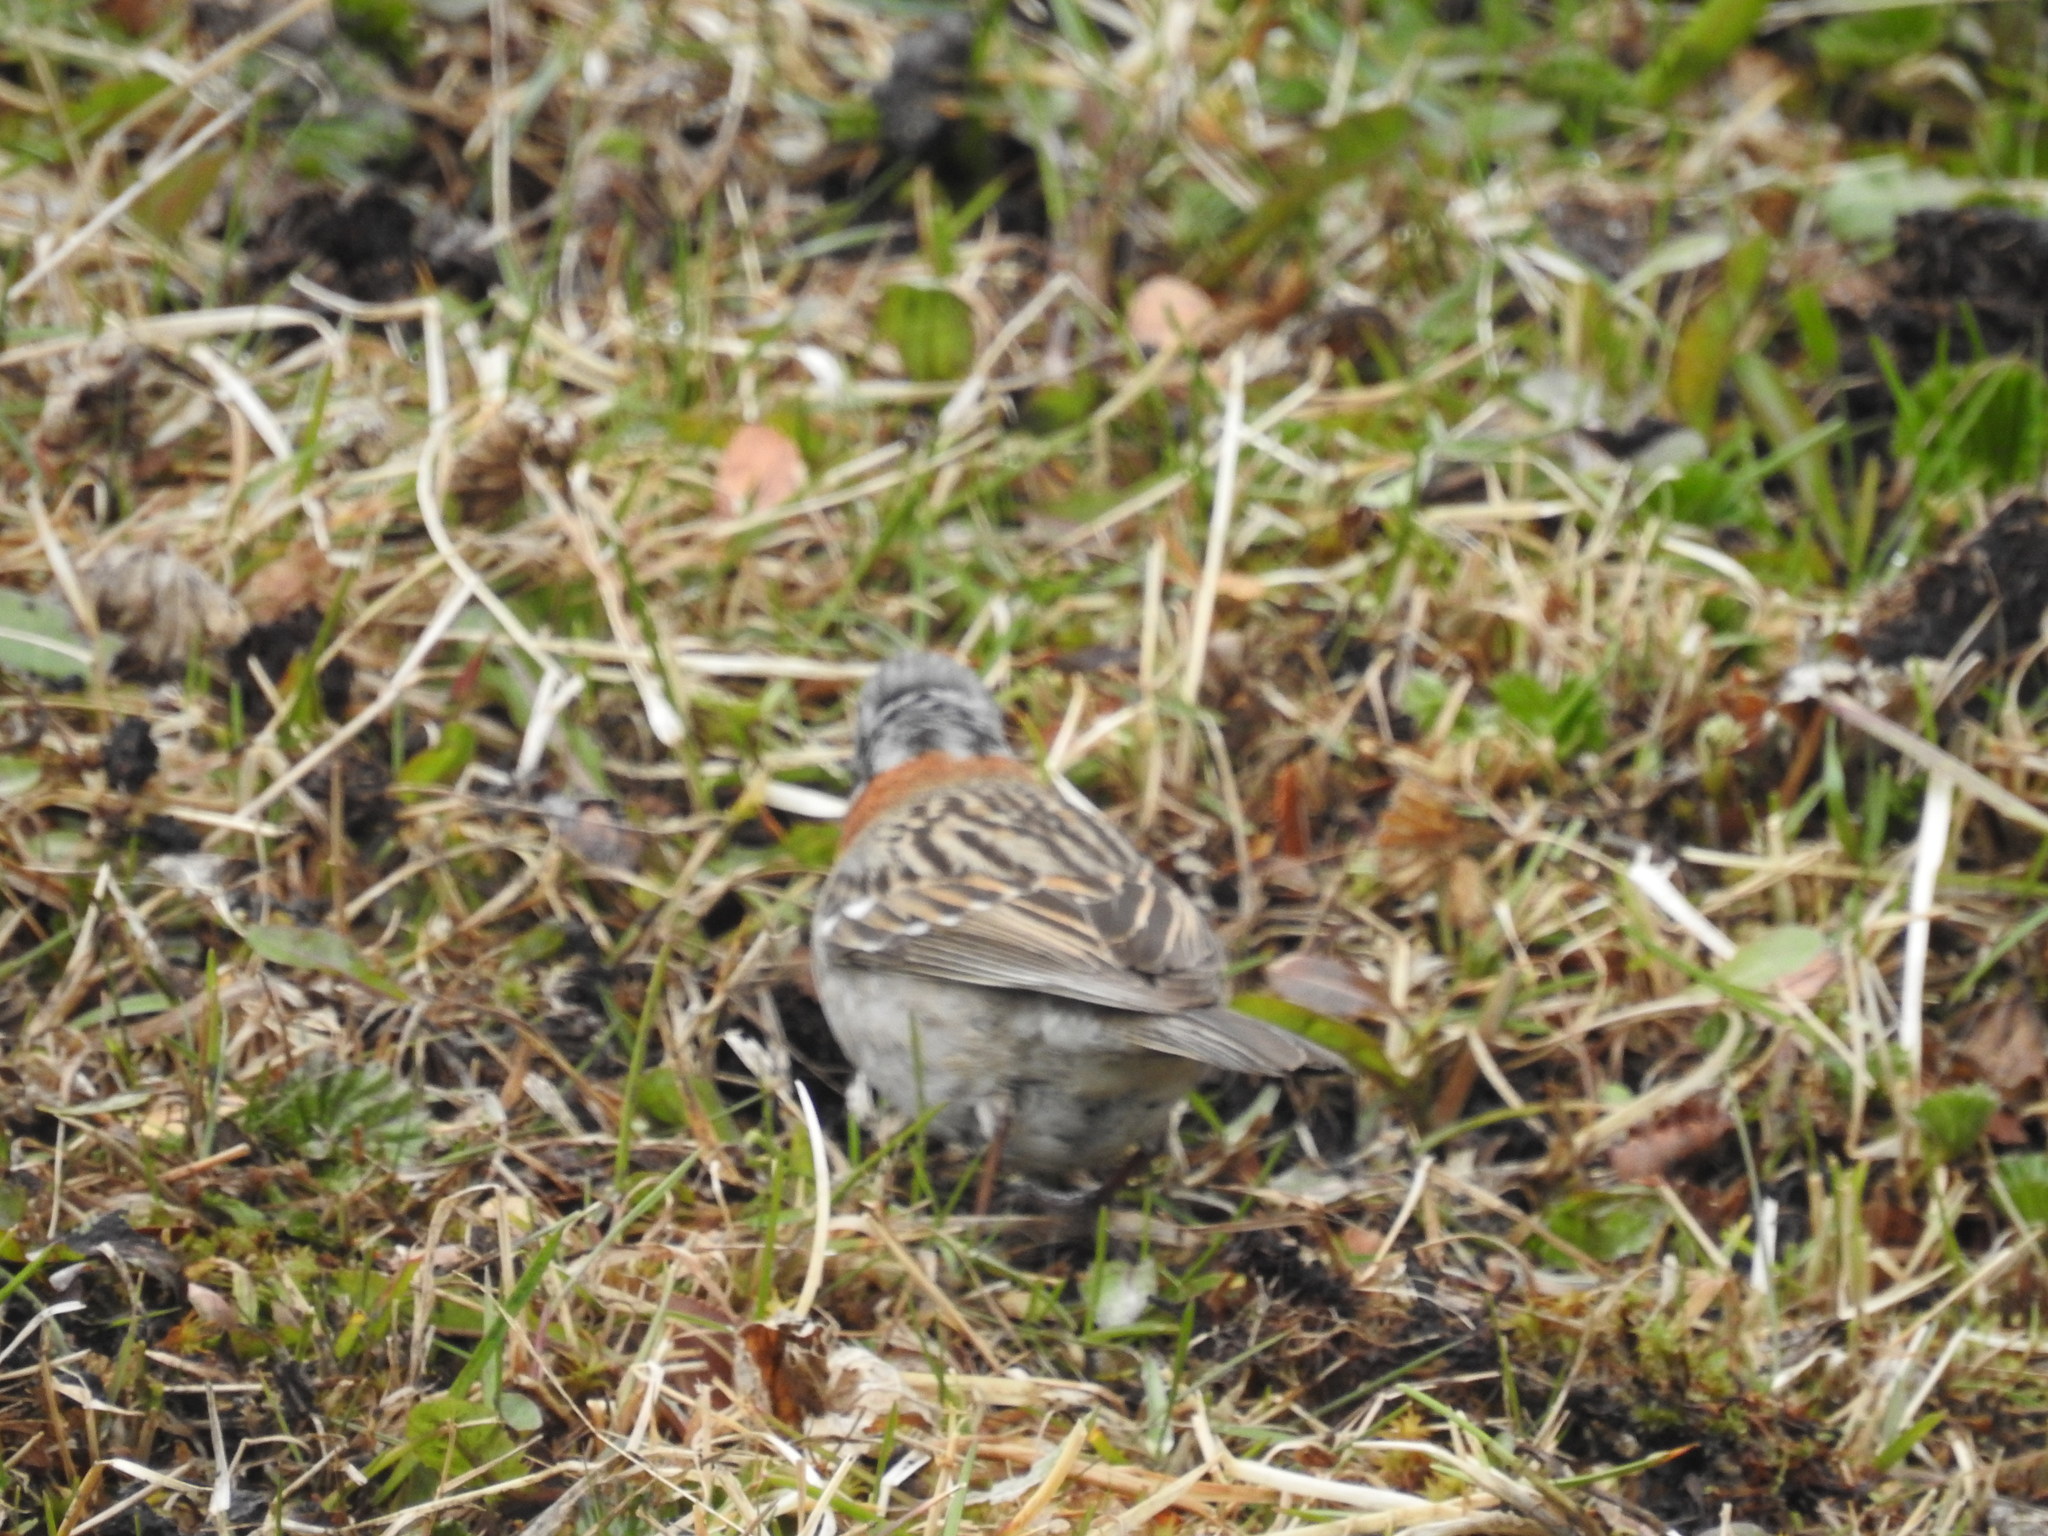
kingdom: Animalia
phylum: Chordata
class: Aves
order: Passeriformes
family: Passerellidae
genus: Zonotrichia
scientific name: Zonotrichia capensis
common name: Rufous-collared sparrow
